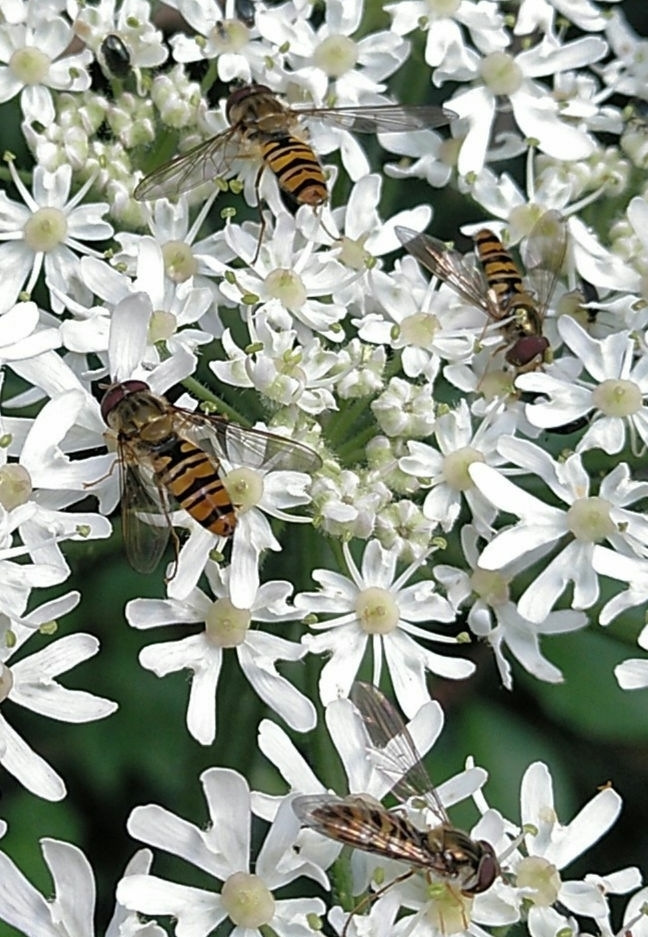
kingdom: Animalia
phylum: Arthropoda
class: Insecta
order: Diptera
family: Syrphidae
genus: Episyrphus
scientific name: Episyrphus balteatus
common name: Marmalade hoverfly
